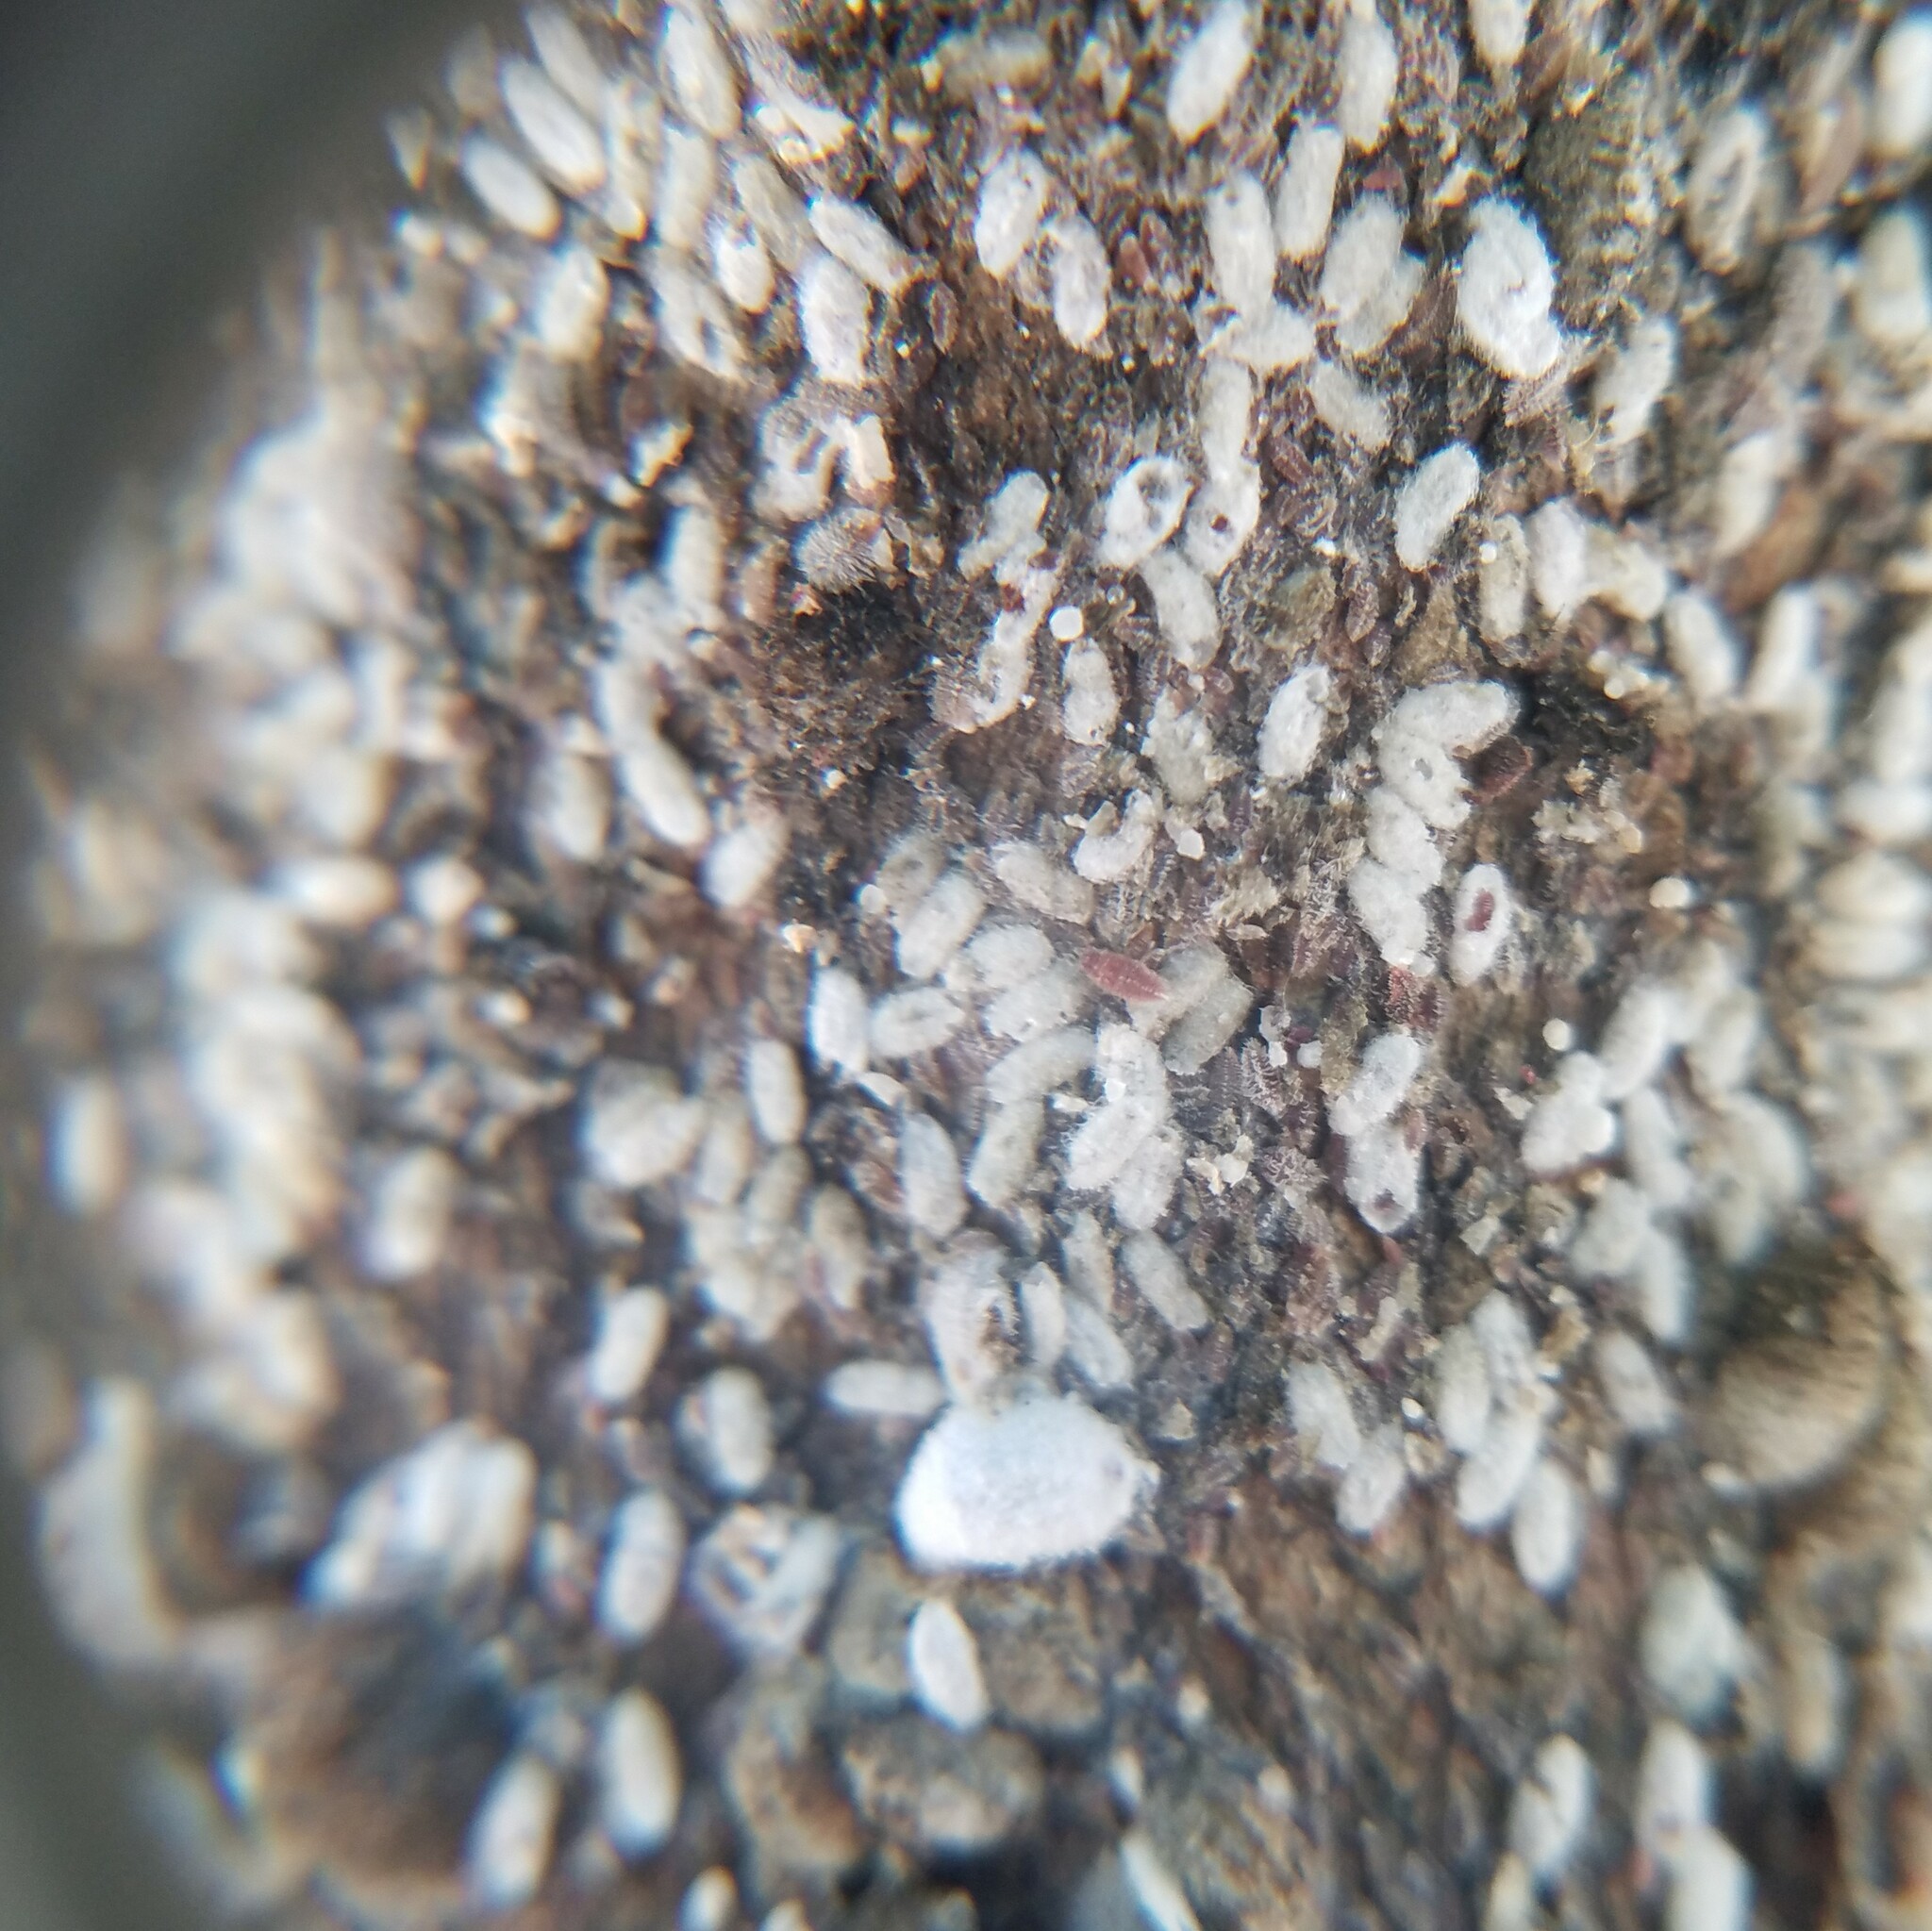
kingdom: Animalia
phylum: Arthropoda
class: Insecta
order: Hemiptera
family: Eriococcidae
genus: Eriococcus
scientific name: Eriococcus lagerstroemiae
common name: Crapemyrtle bark scale
